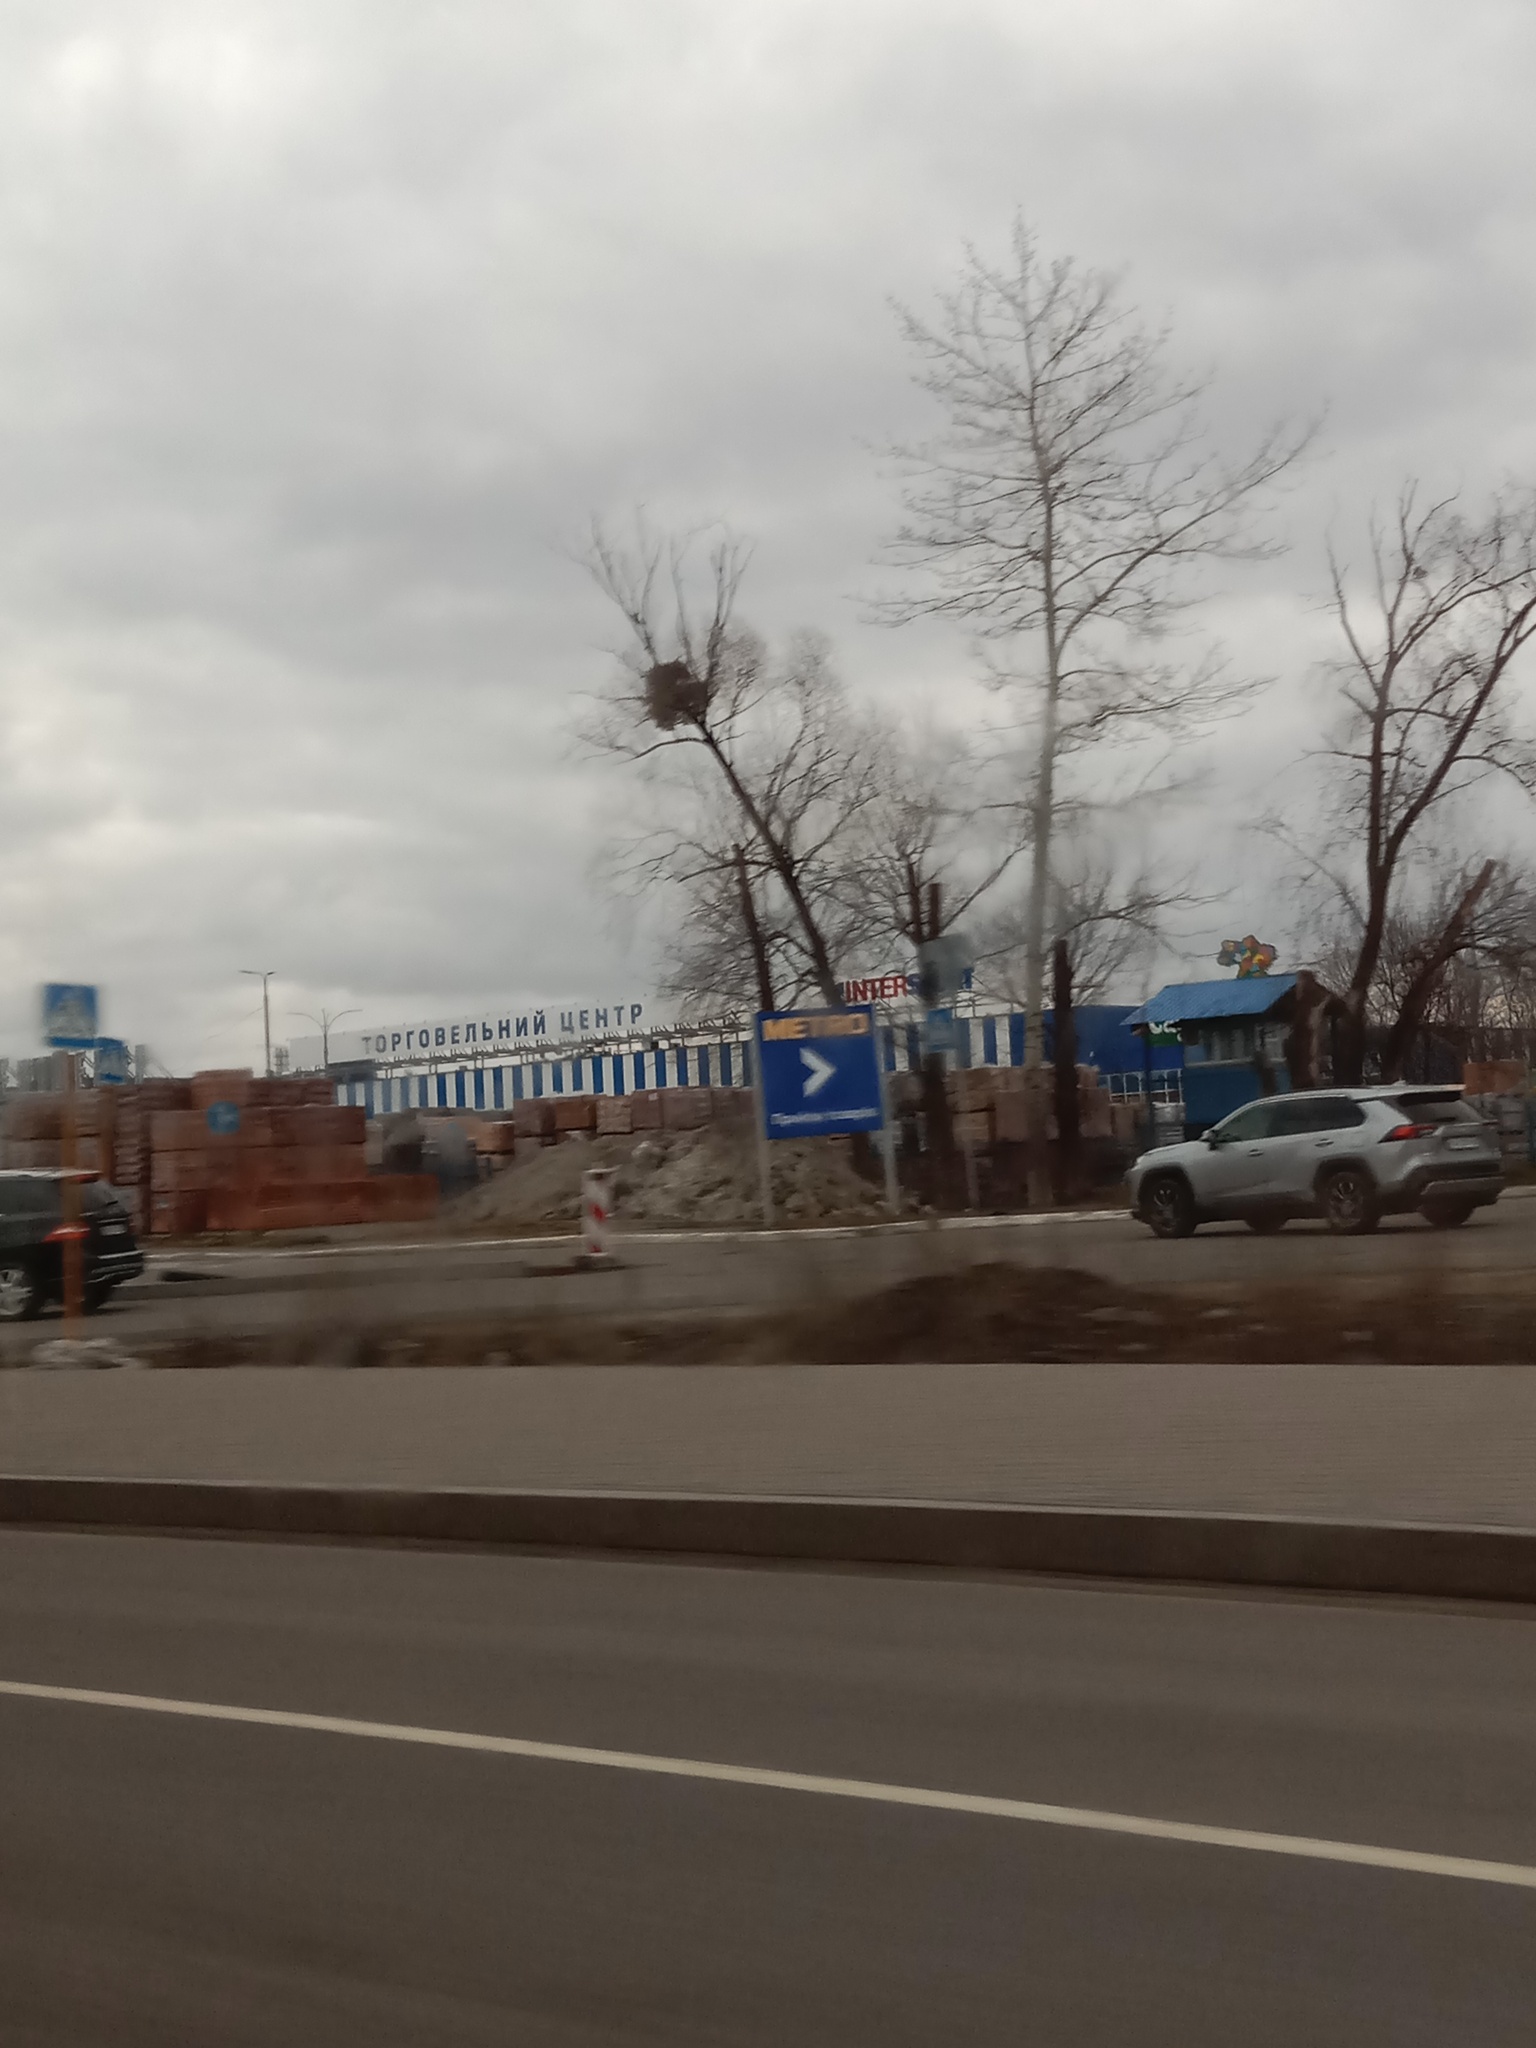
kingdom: Plantae
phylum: Tracheophyta
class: Magnoliopsida
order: Santalales
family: Viscaceae
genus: Viscum
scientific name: Viscum album
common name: Mistletoe
